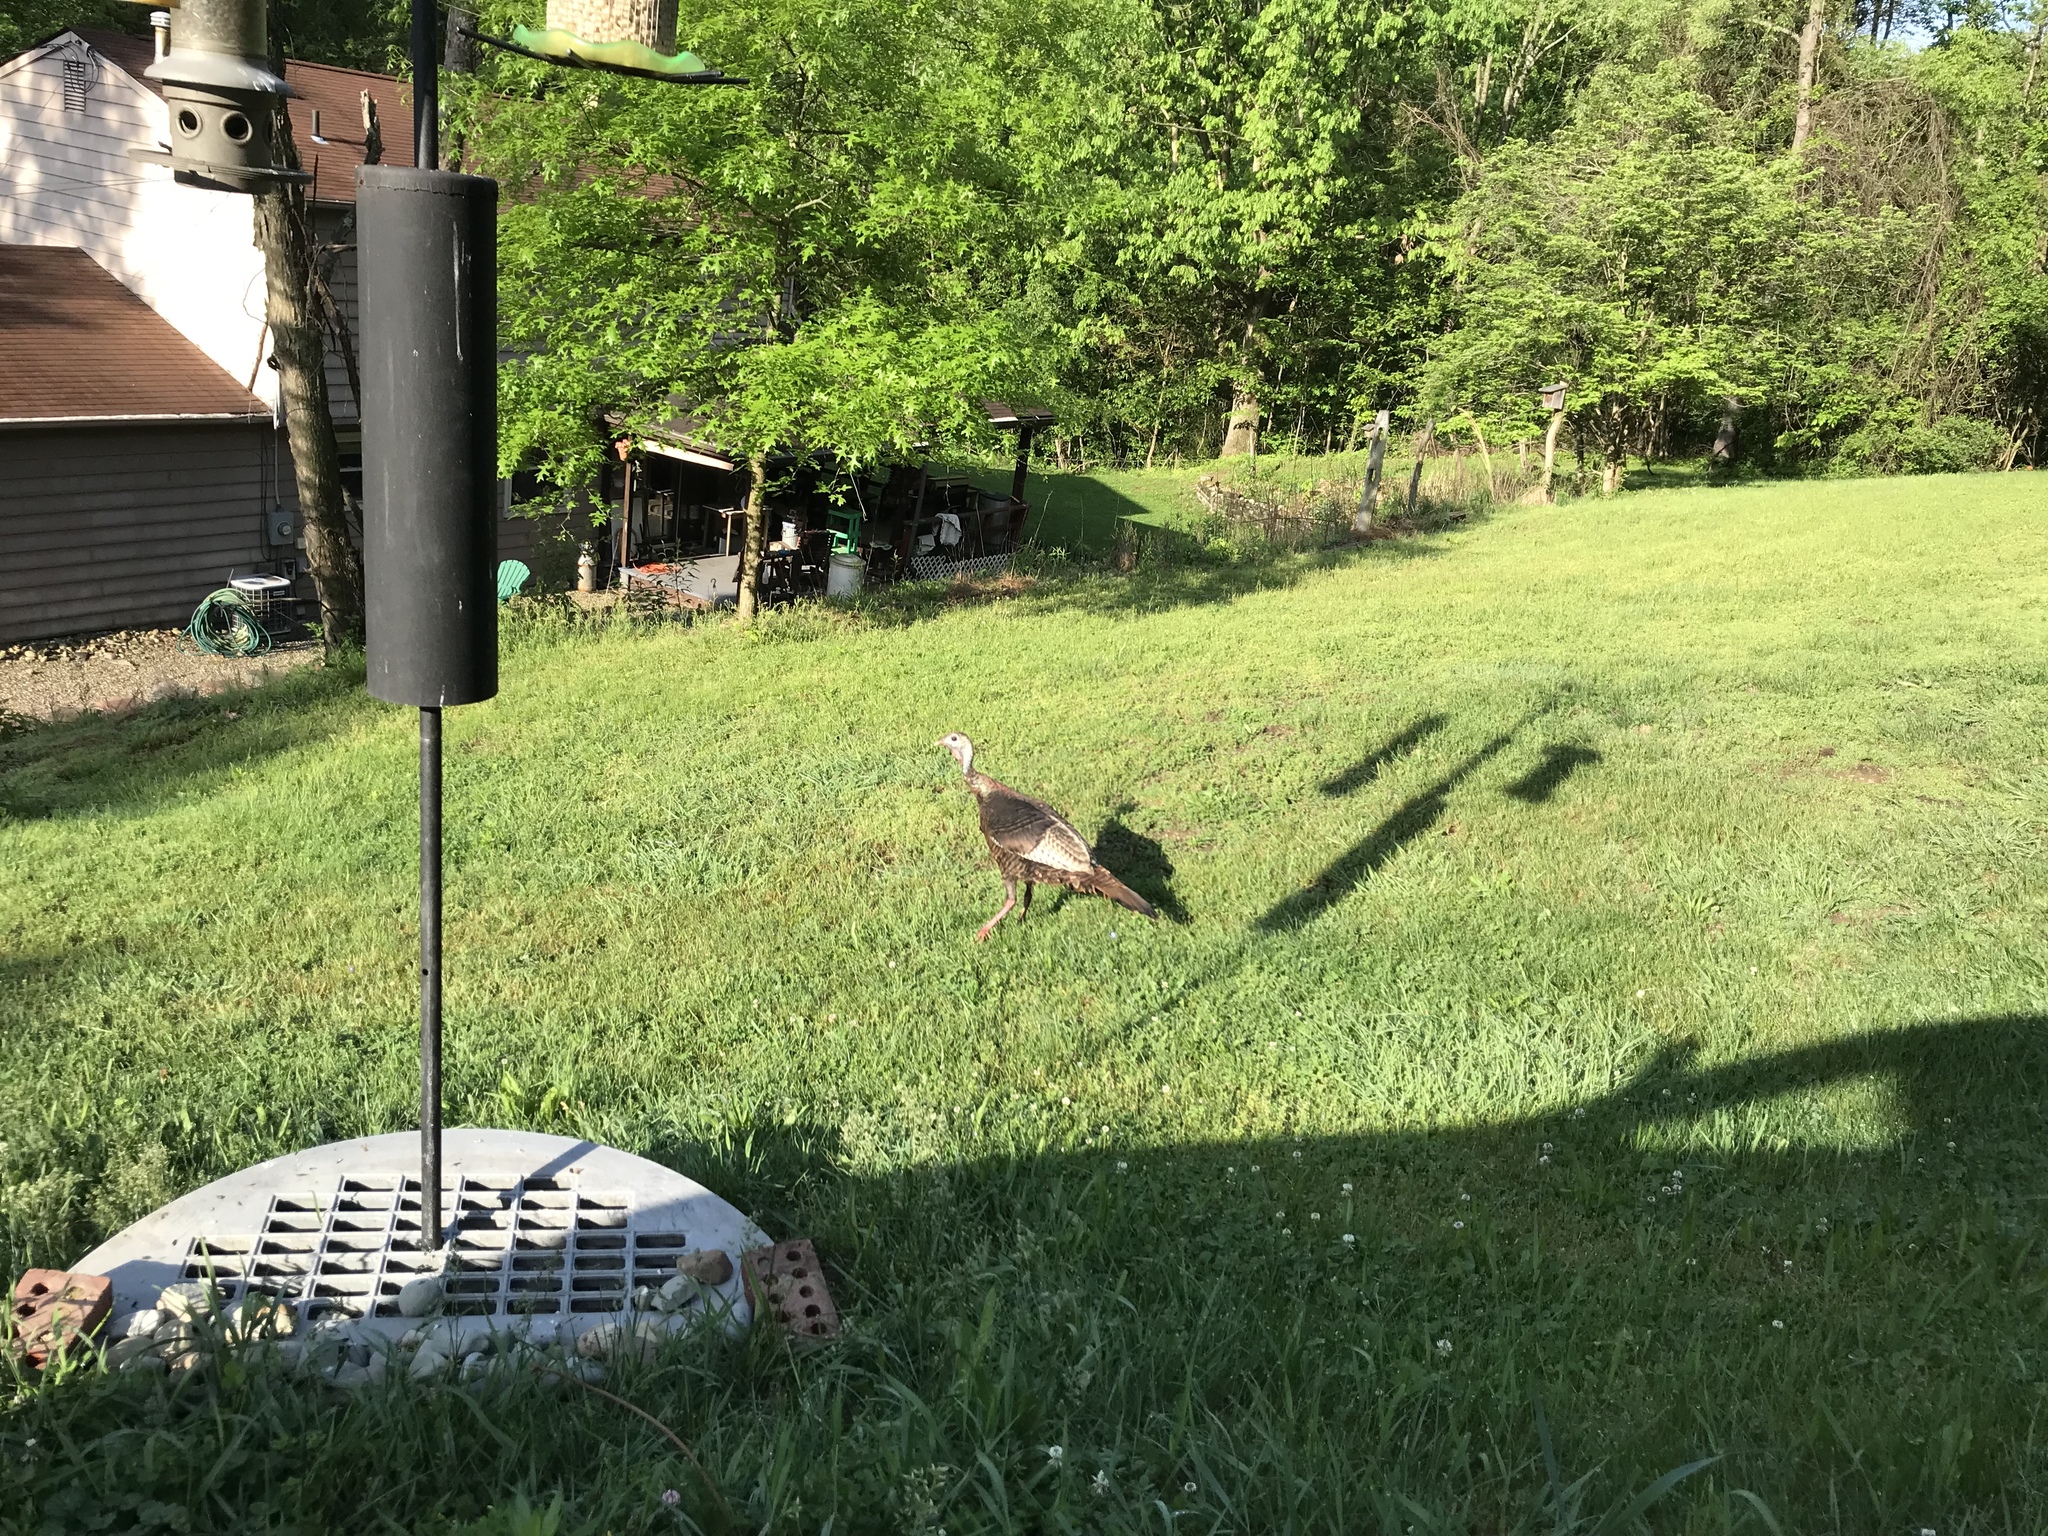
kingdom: Animalia
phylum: Chordata
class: Aves
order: Galliformes
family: Phasianidae
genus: Meleagris
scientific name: Meleagris gallopavo
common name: Wild turkey
